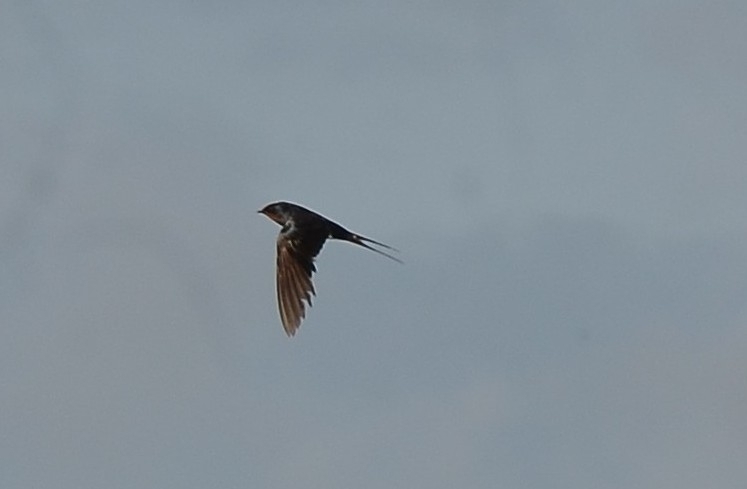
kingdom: Animalia
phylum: Chordata
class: Aves
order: Passeriformes
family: Hirundinidae
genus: Hirundo
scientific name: Hirundo rustica
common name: Barn swallow
